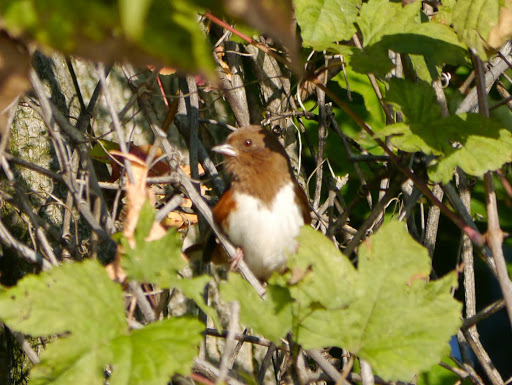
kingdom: Animalia
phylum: Chordata
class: Aves
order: Passeriformes
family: Passerellidae
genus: Pipilo
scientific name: Pipilo erythrophthalmus
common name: Eastern towhee
